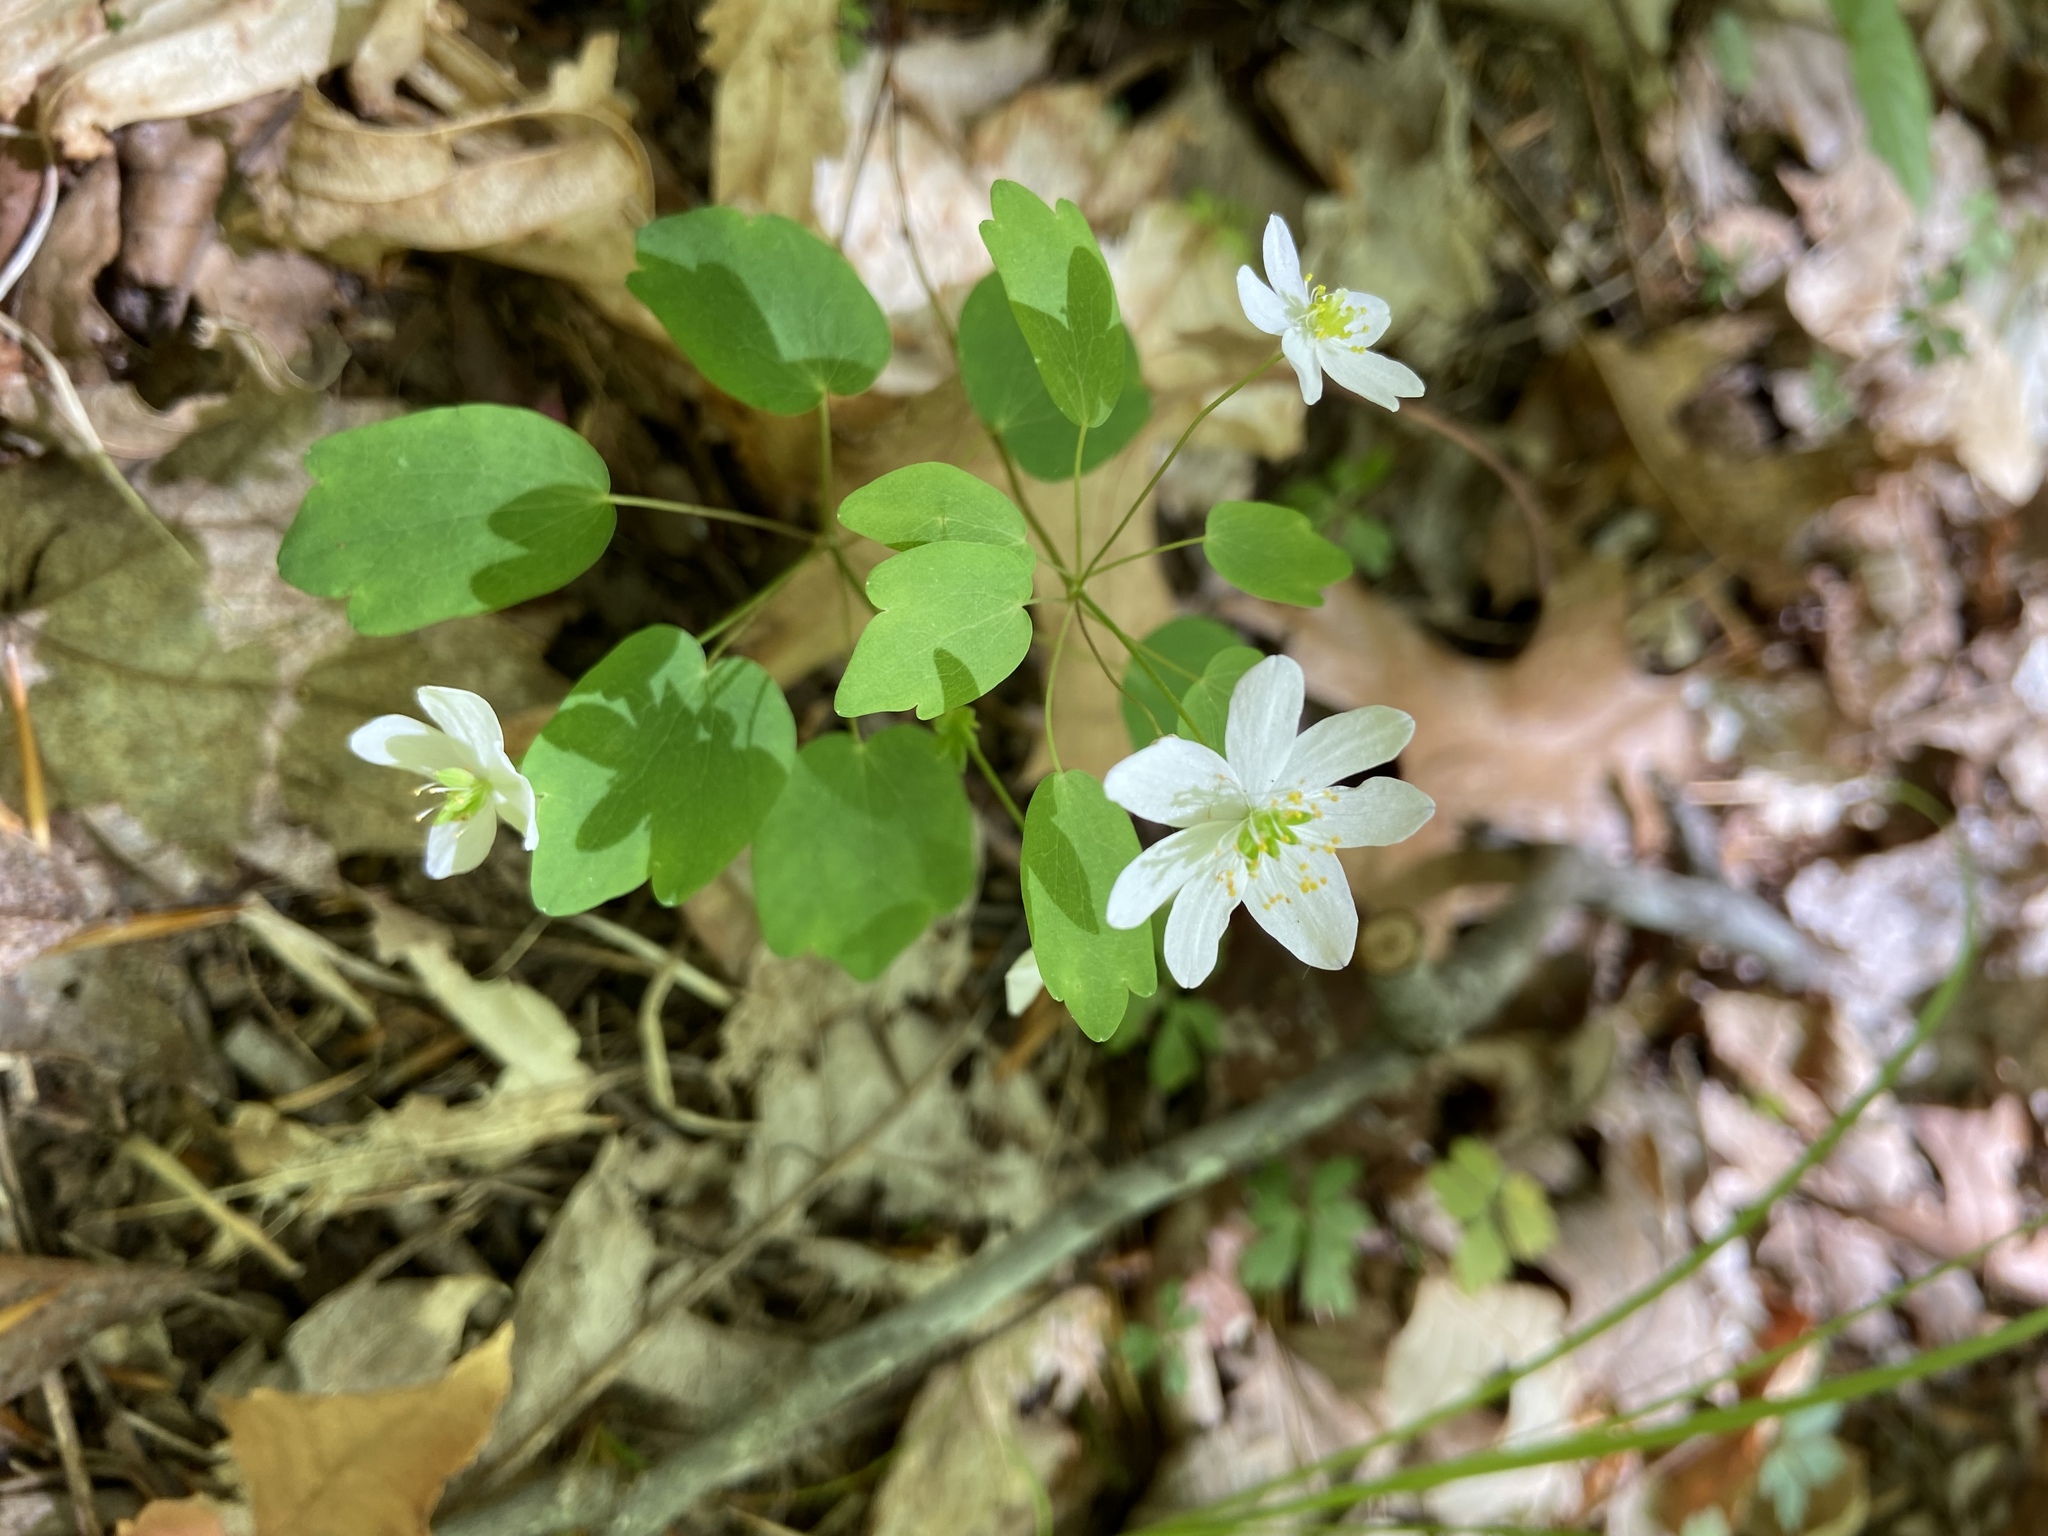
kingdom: Plantae
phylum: Tracheophyta
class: Magnoliopsida
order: Ranunculales
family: Ranunculaceae
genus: Thalictrum
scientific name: Thalictrum thalictroides
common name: Rue-anemone
